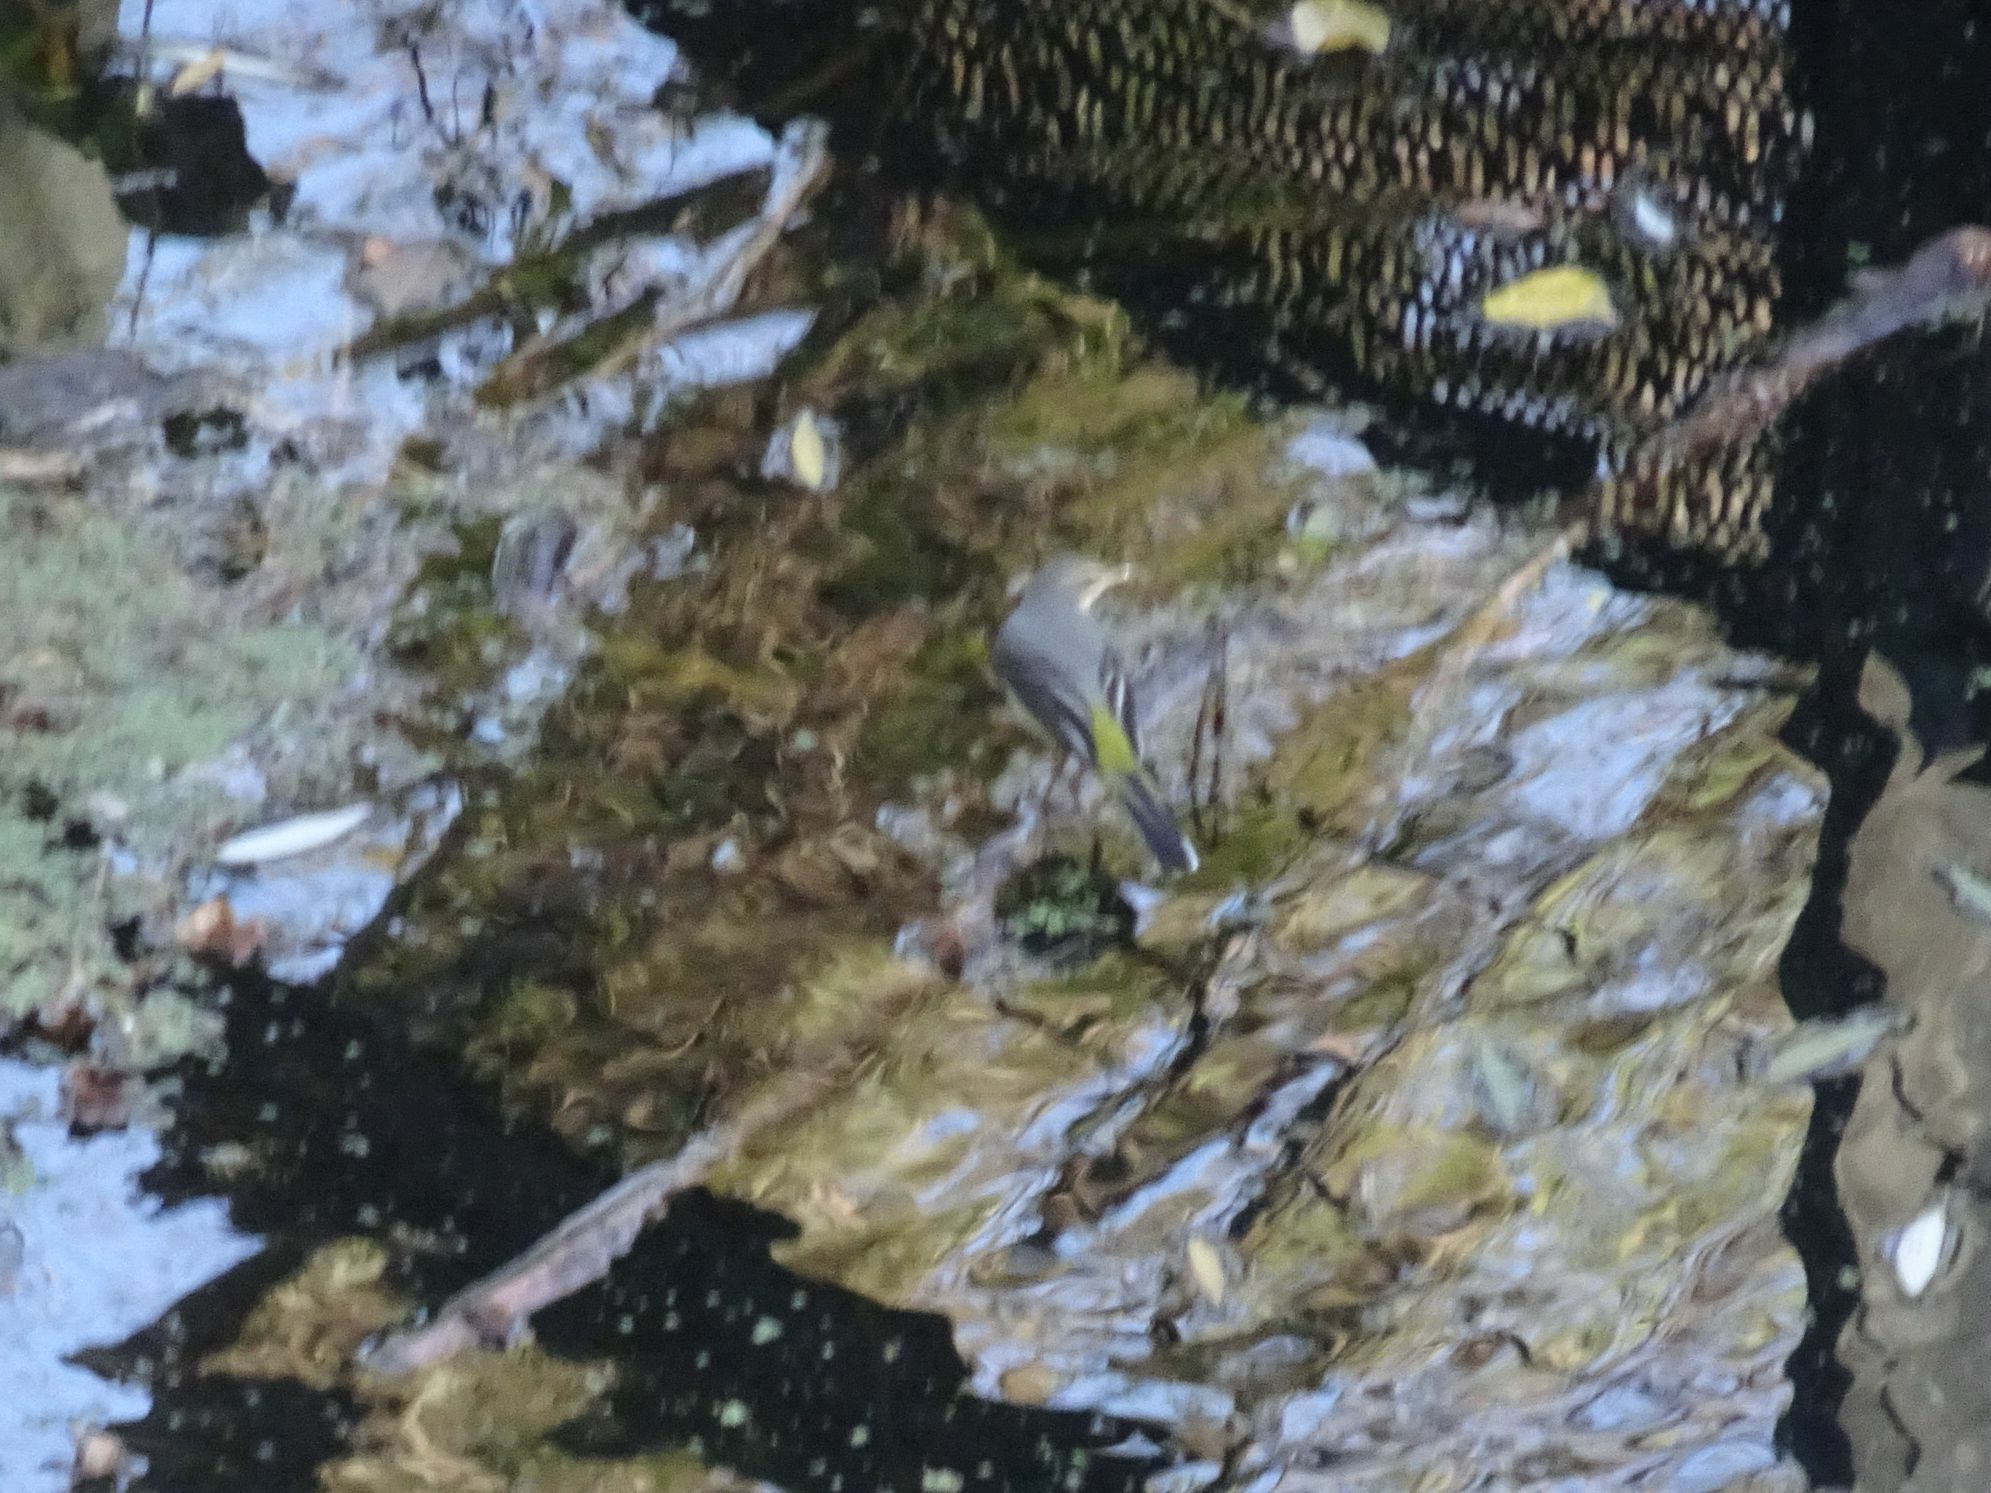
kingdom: Animalia
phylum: Chordata
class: Aves
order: Passeriformes
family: Motacillidae
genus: Motacilla
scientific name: Motacilla cinerea
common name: Grey wagtail
